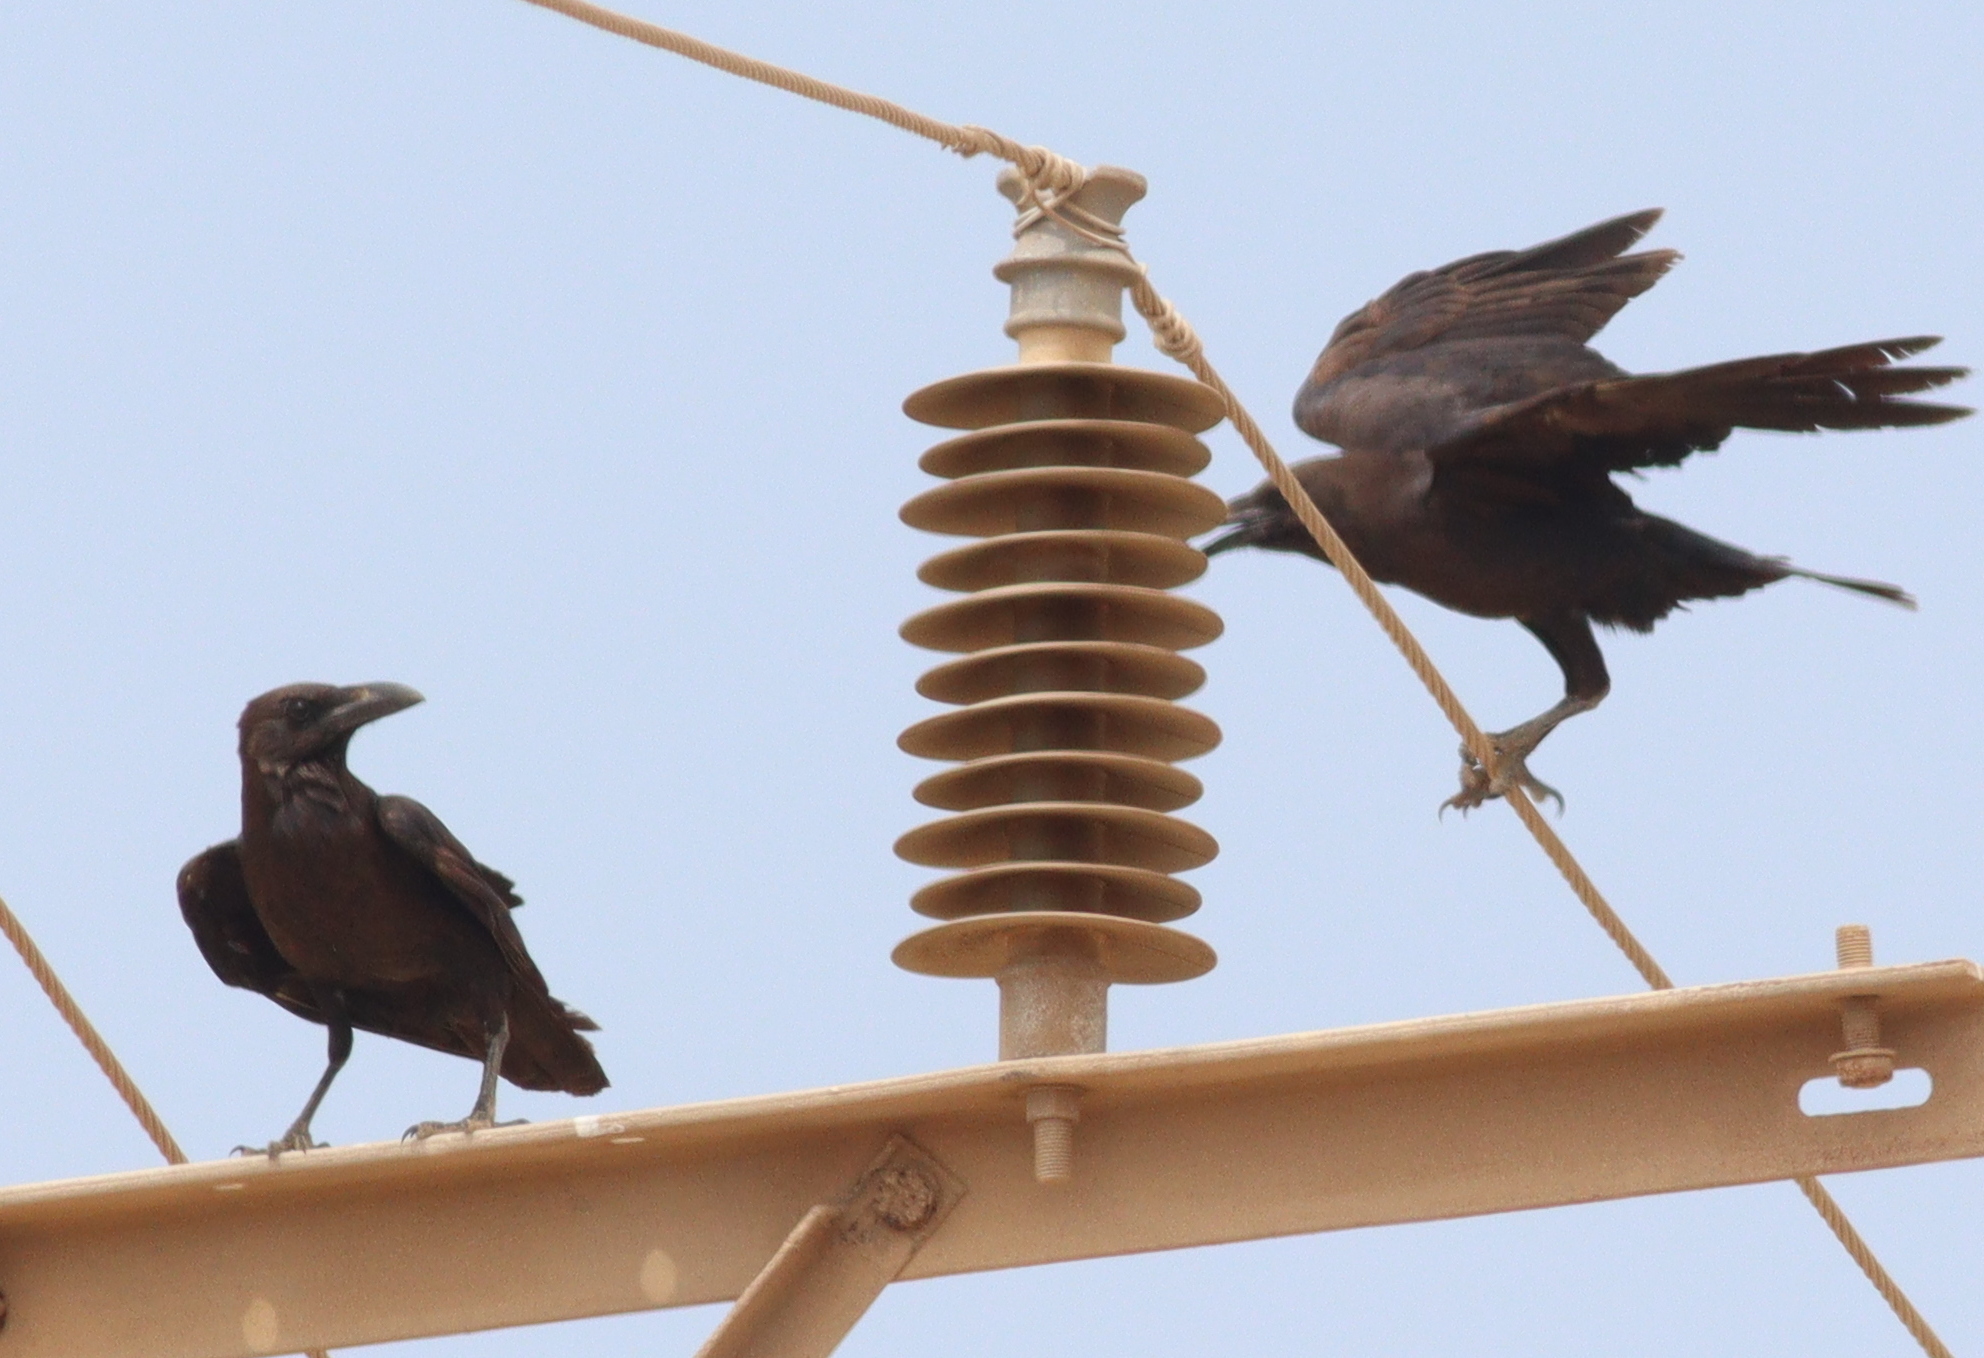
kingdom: Animalia
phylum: Chordata
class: Aves
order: Passeriformes
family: Corvidae
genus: Corvus
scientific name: Corvus ruficollis
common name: Brown-necked raven
